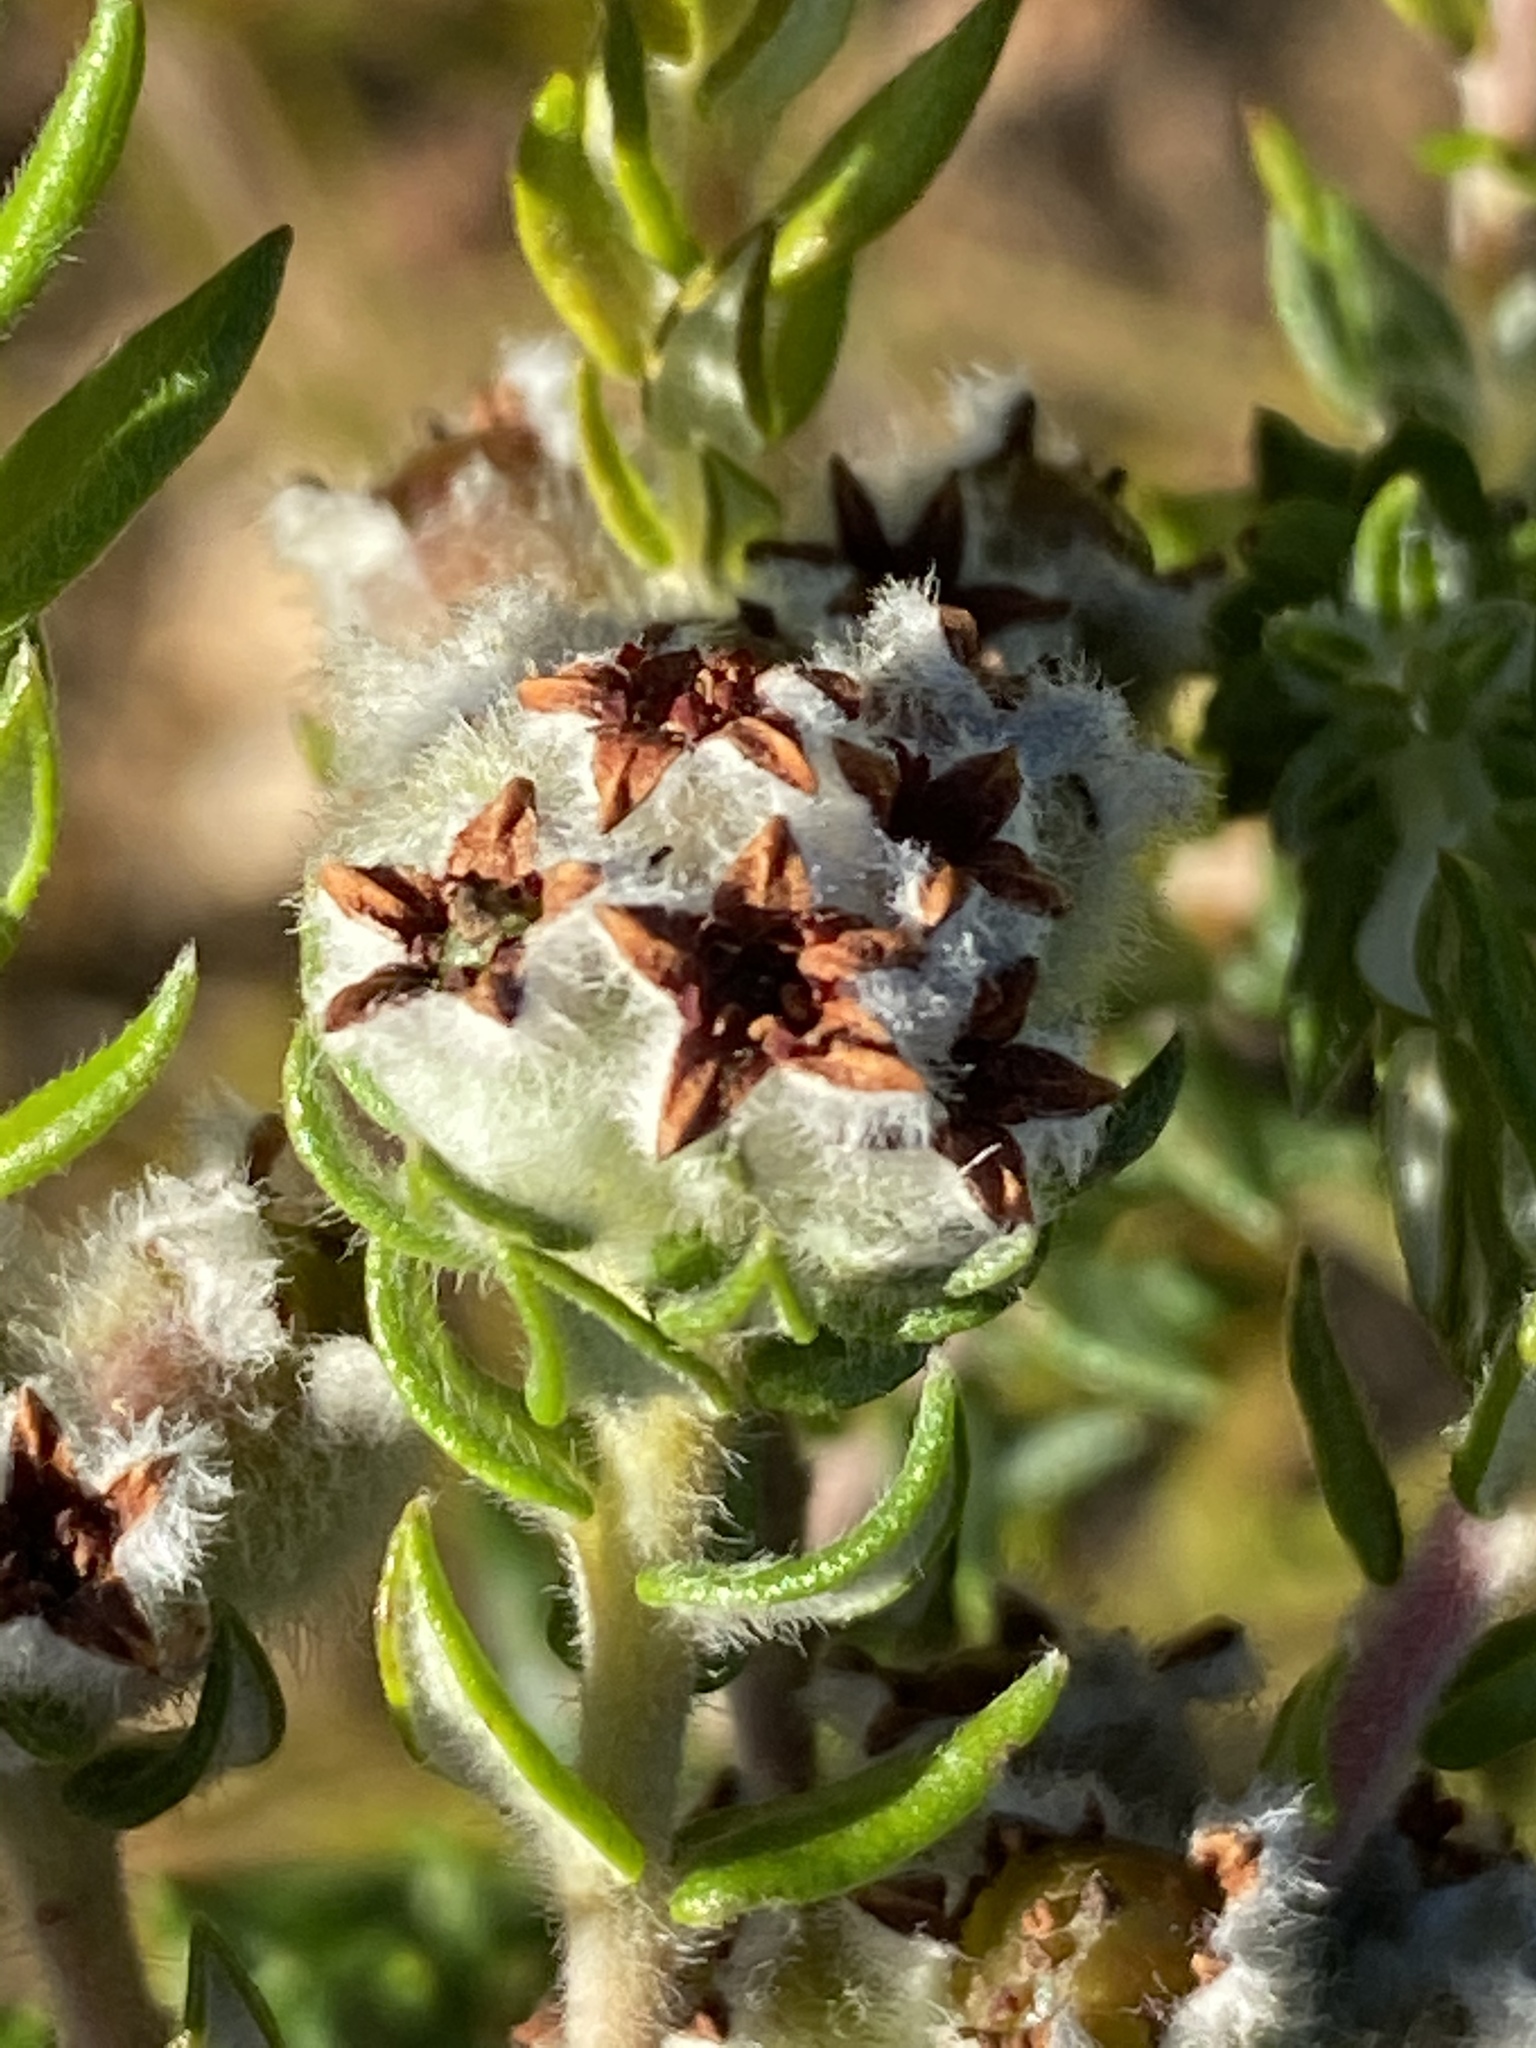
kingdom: Plantae
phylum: Tracheophyta
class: Magnoliopsida
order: Rosales
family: Rhamnaceae
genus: Phylica
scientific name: Phylica purpurea
